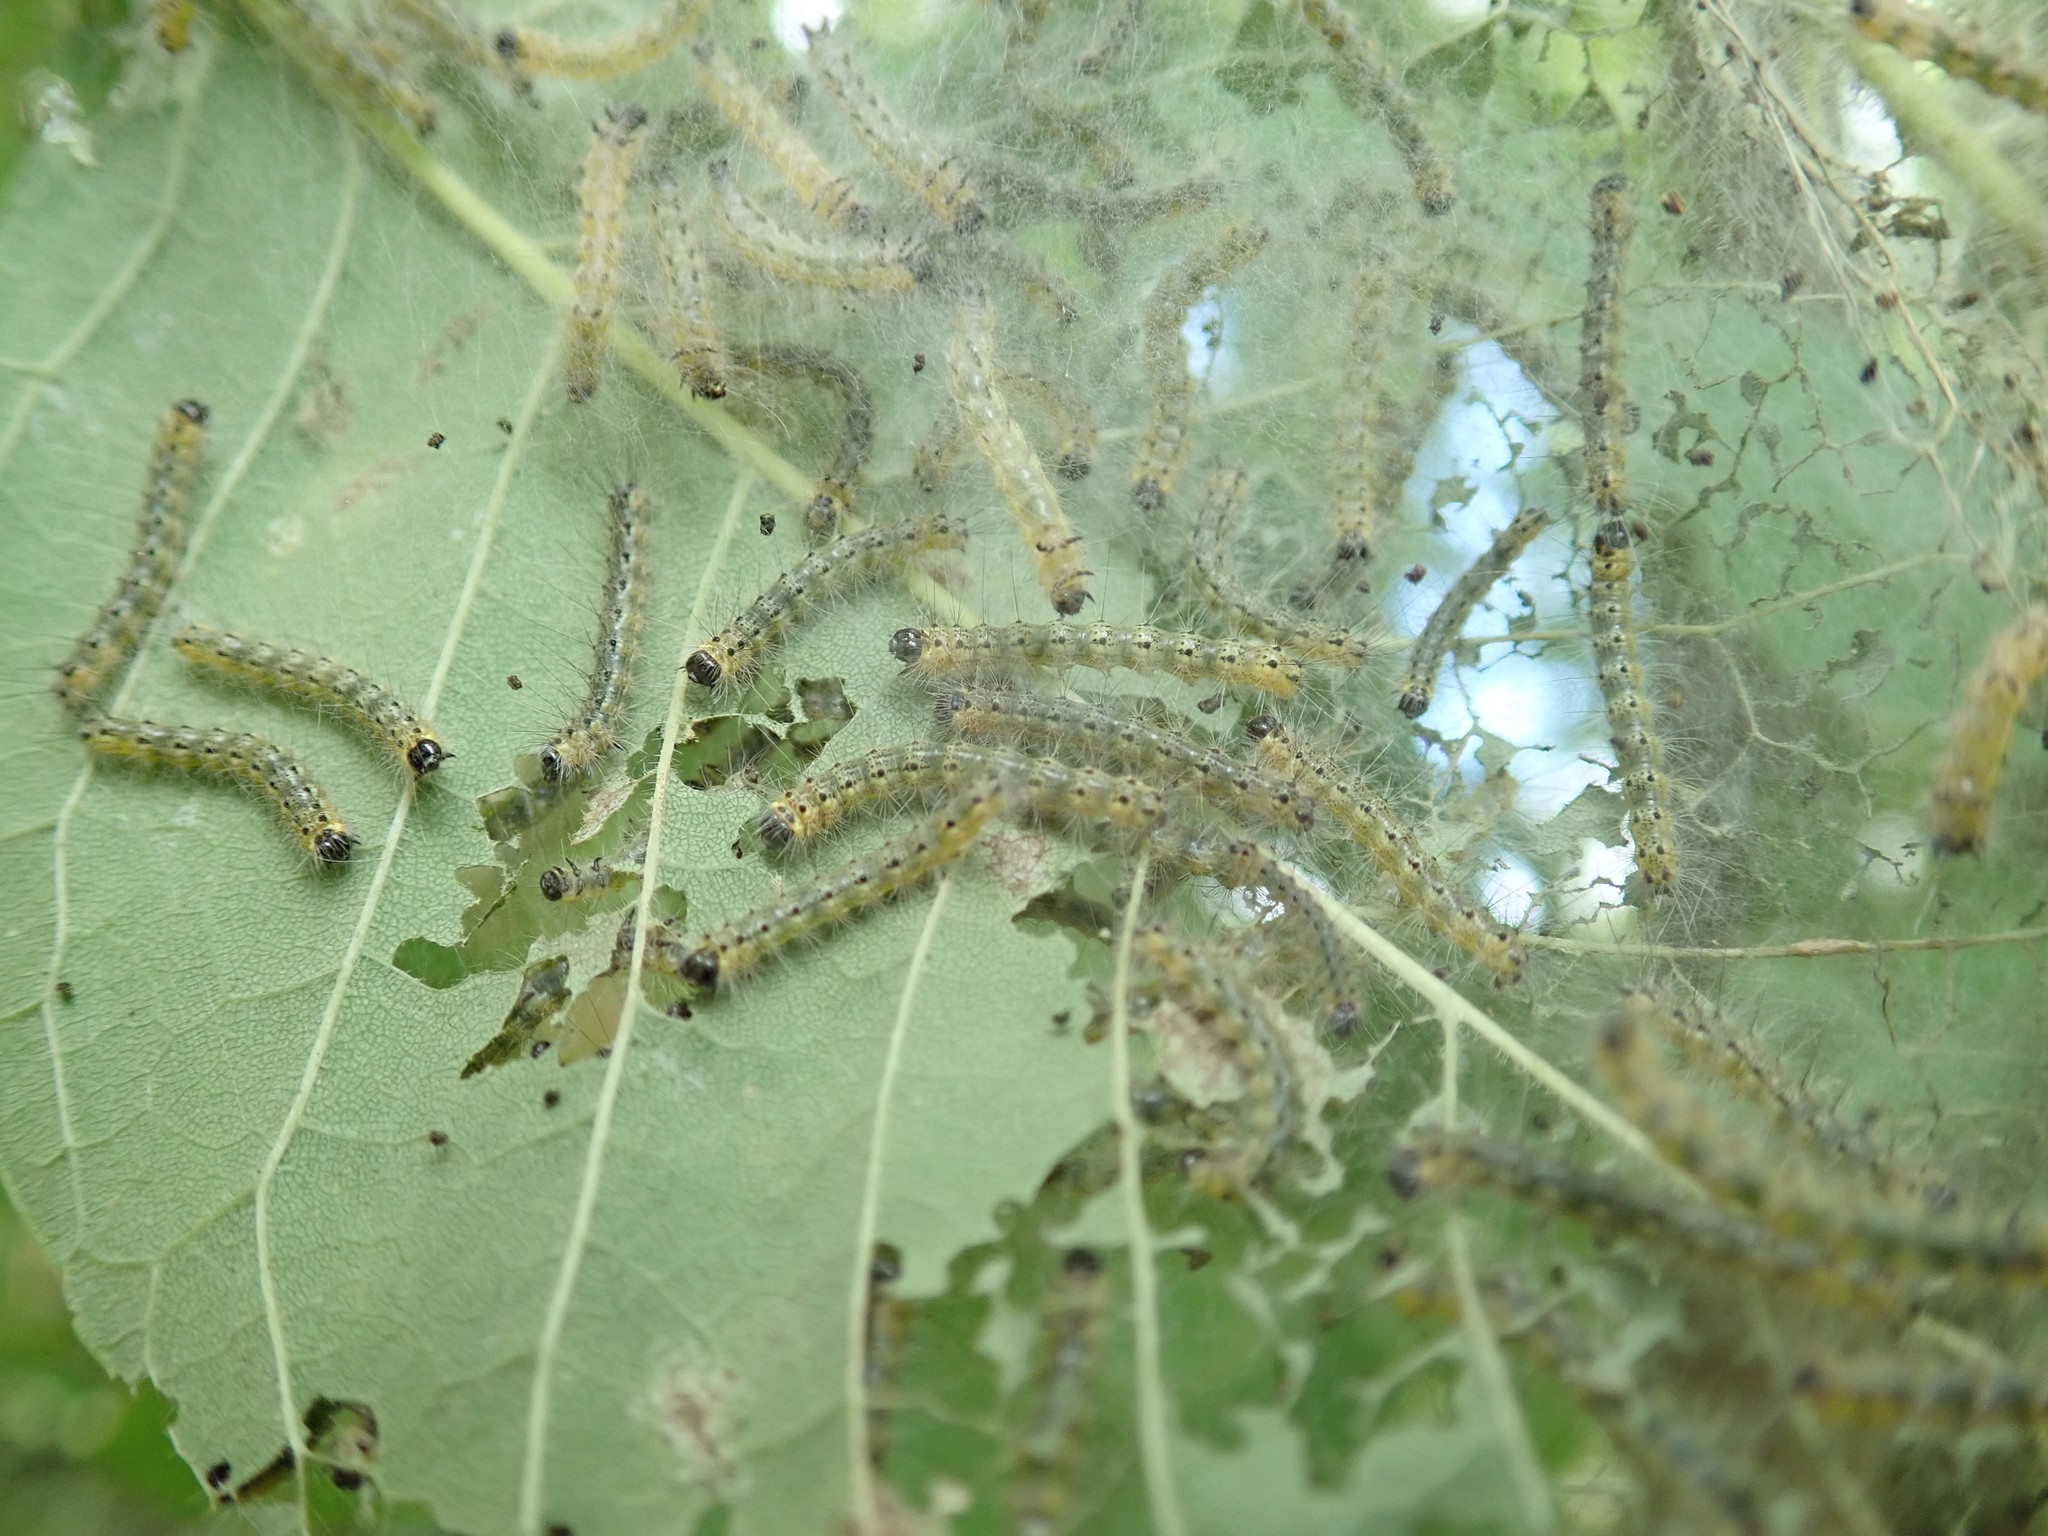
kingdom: Animalia
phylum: Arthropoda
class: Insecta
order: Lepidoptera
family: Erebidae
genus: Hyphantria
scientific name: Hyphantria cunea
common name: American white moth
